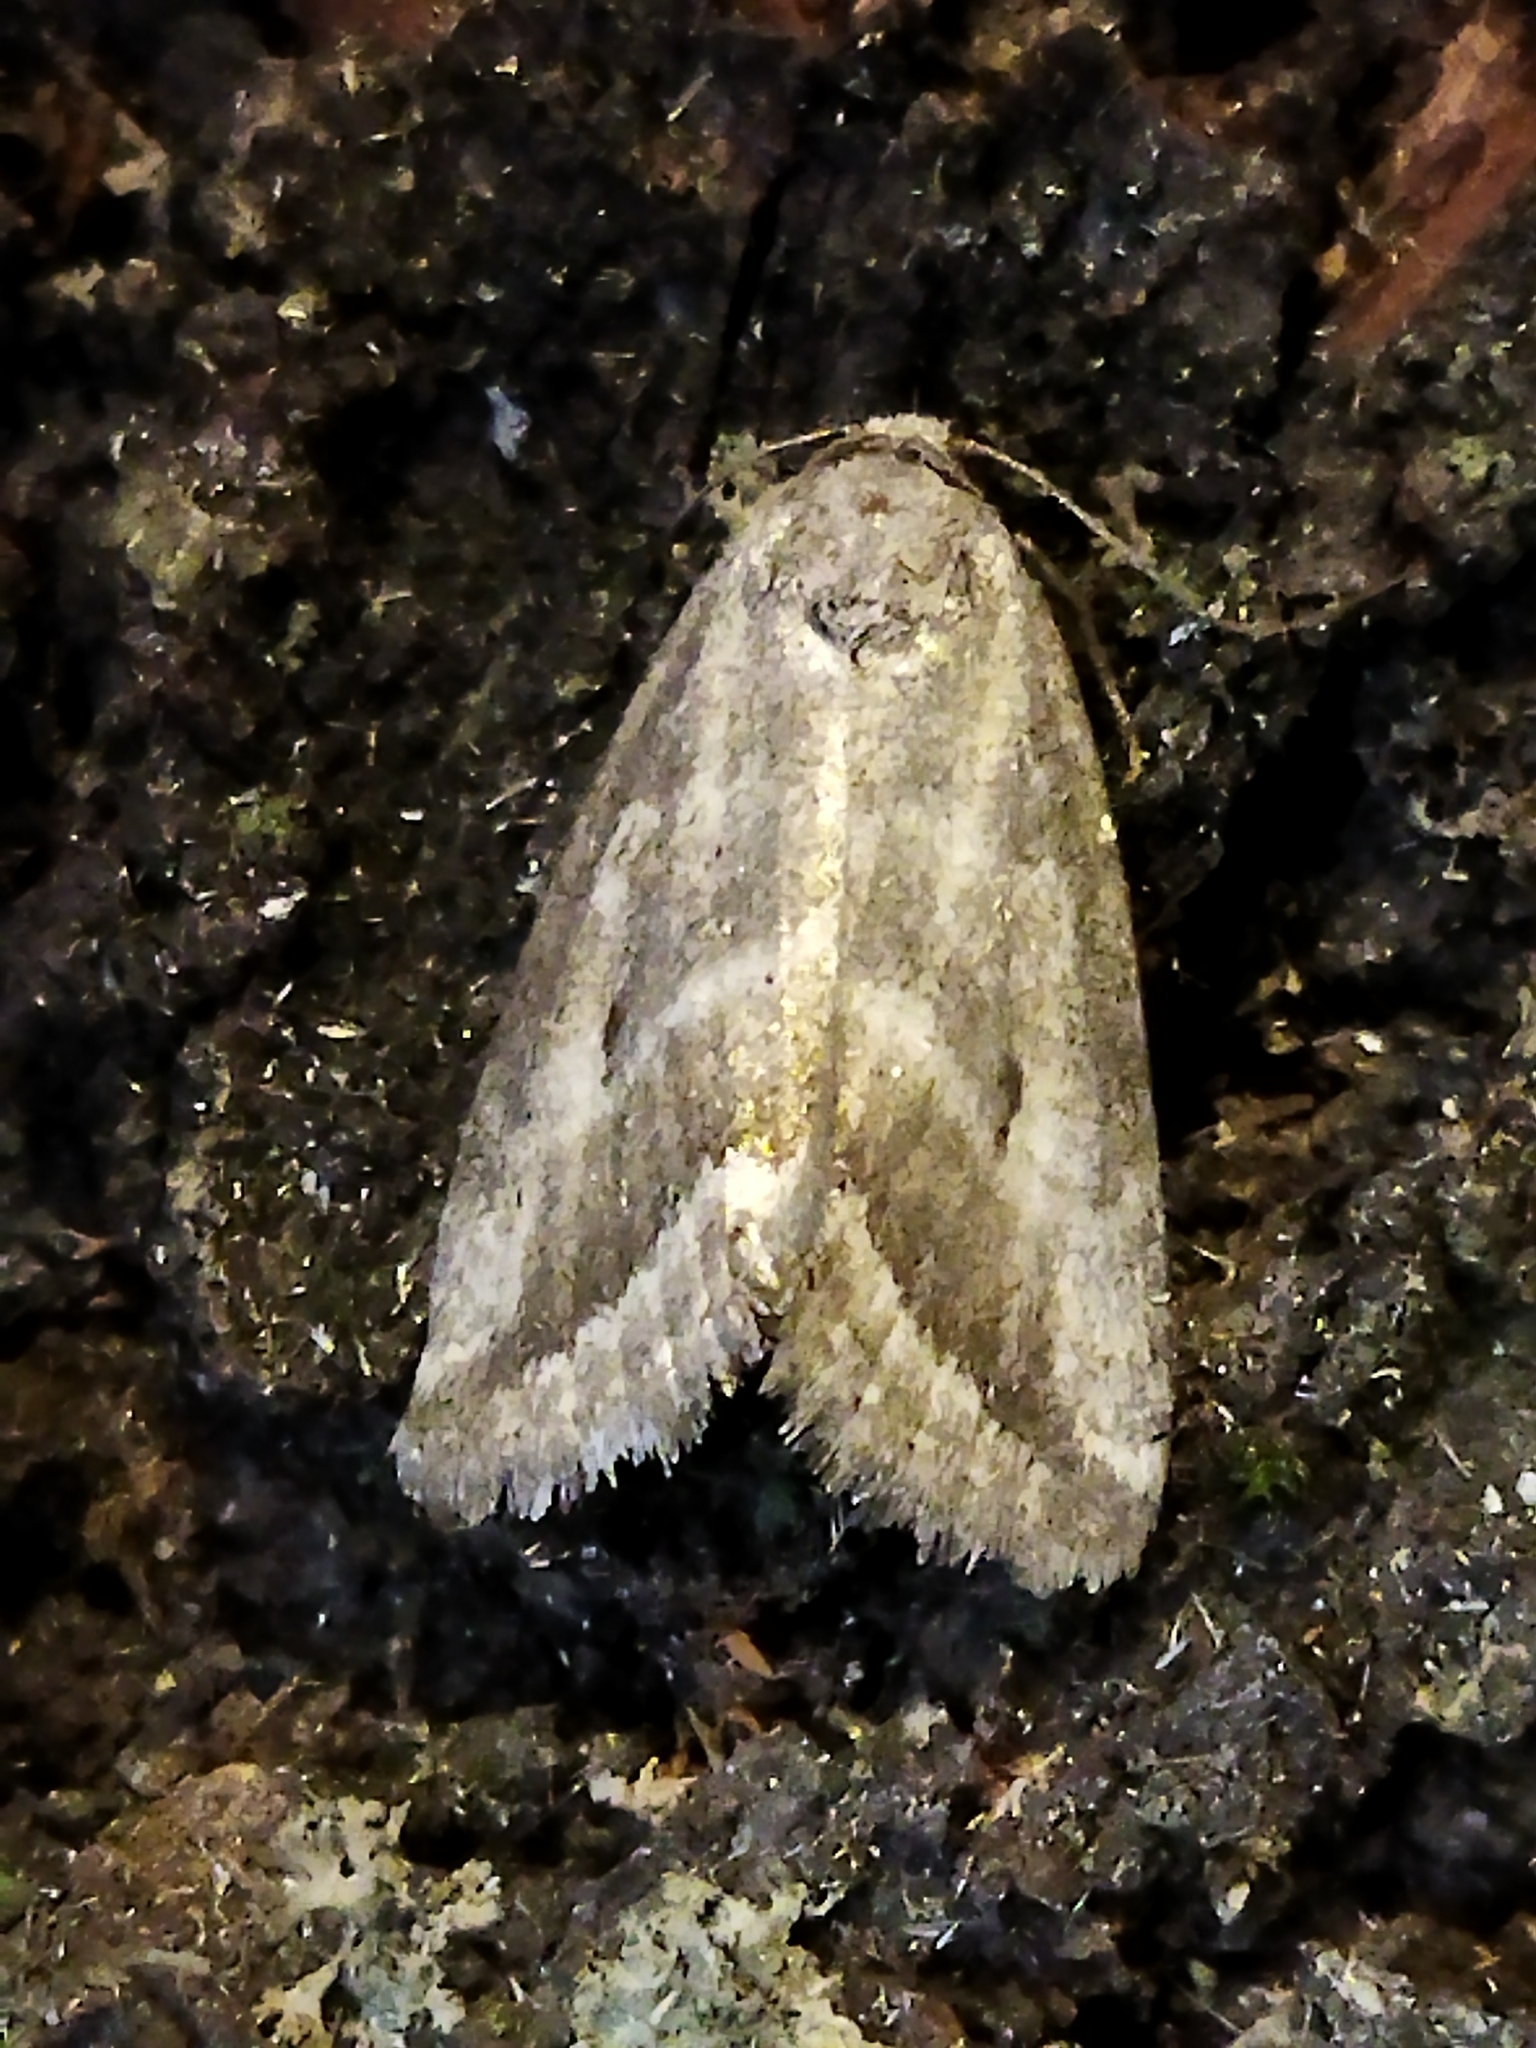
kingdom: Animalia
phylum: Arthropoda
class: Insecta
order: Lepidoptera
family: Noctuidae
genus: Phyllophila
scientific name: Phyllophila obliterata
